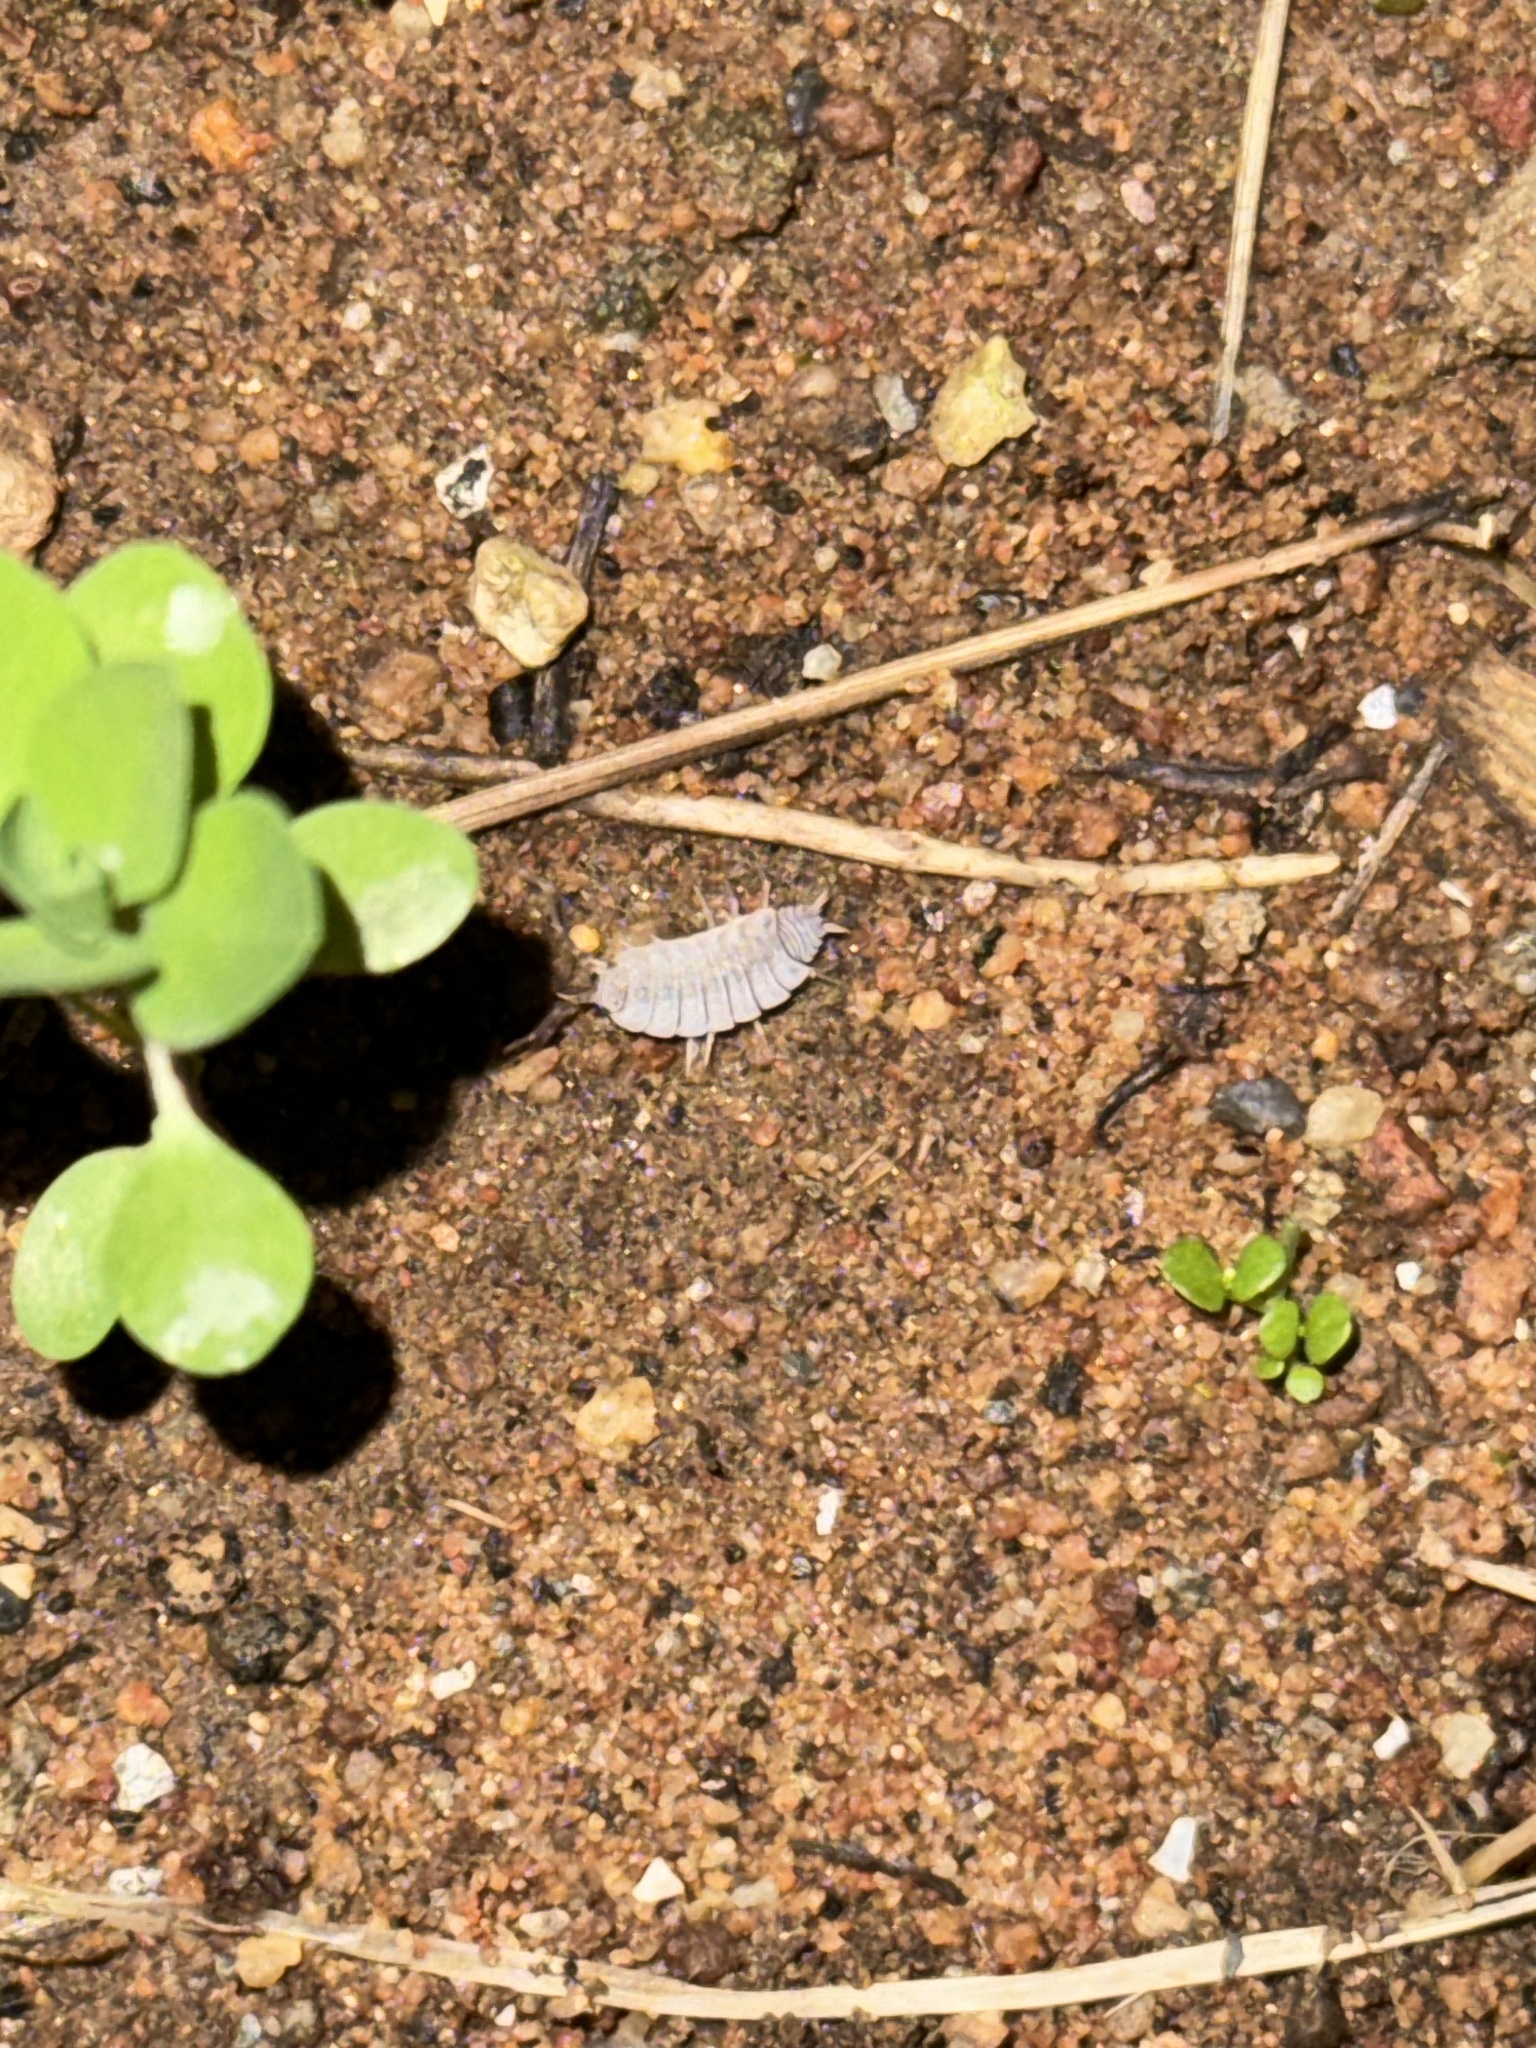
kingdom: Animalia
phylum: Arthropoda
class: Malacostraca
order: Isopoda
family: Porcellionidae
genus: Porcellionides
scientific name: Porcellionides floria
